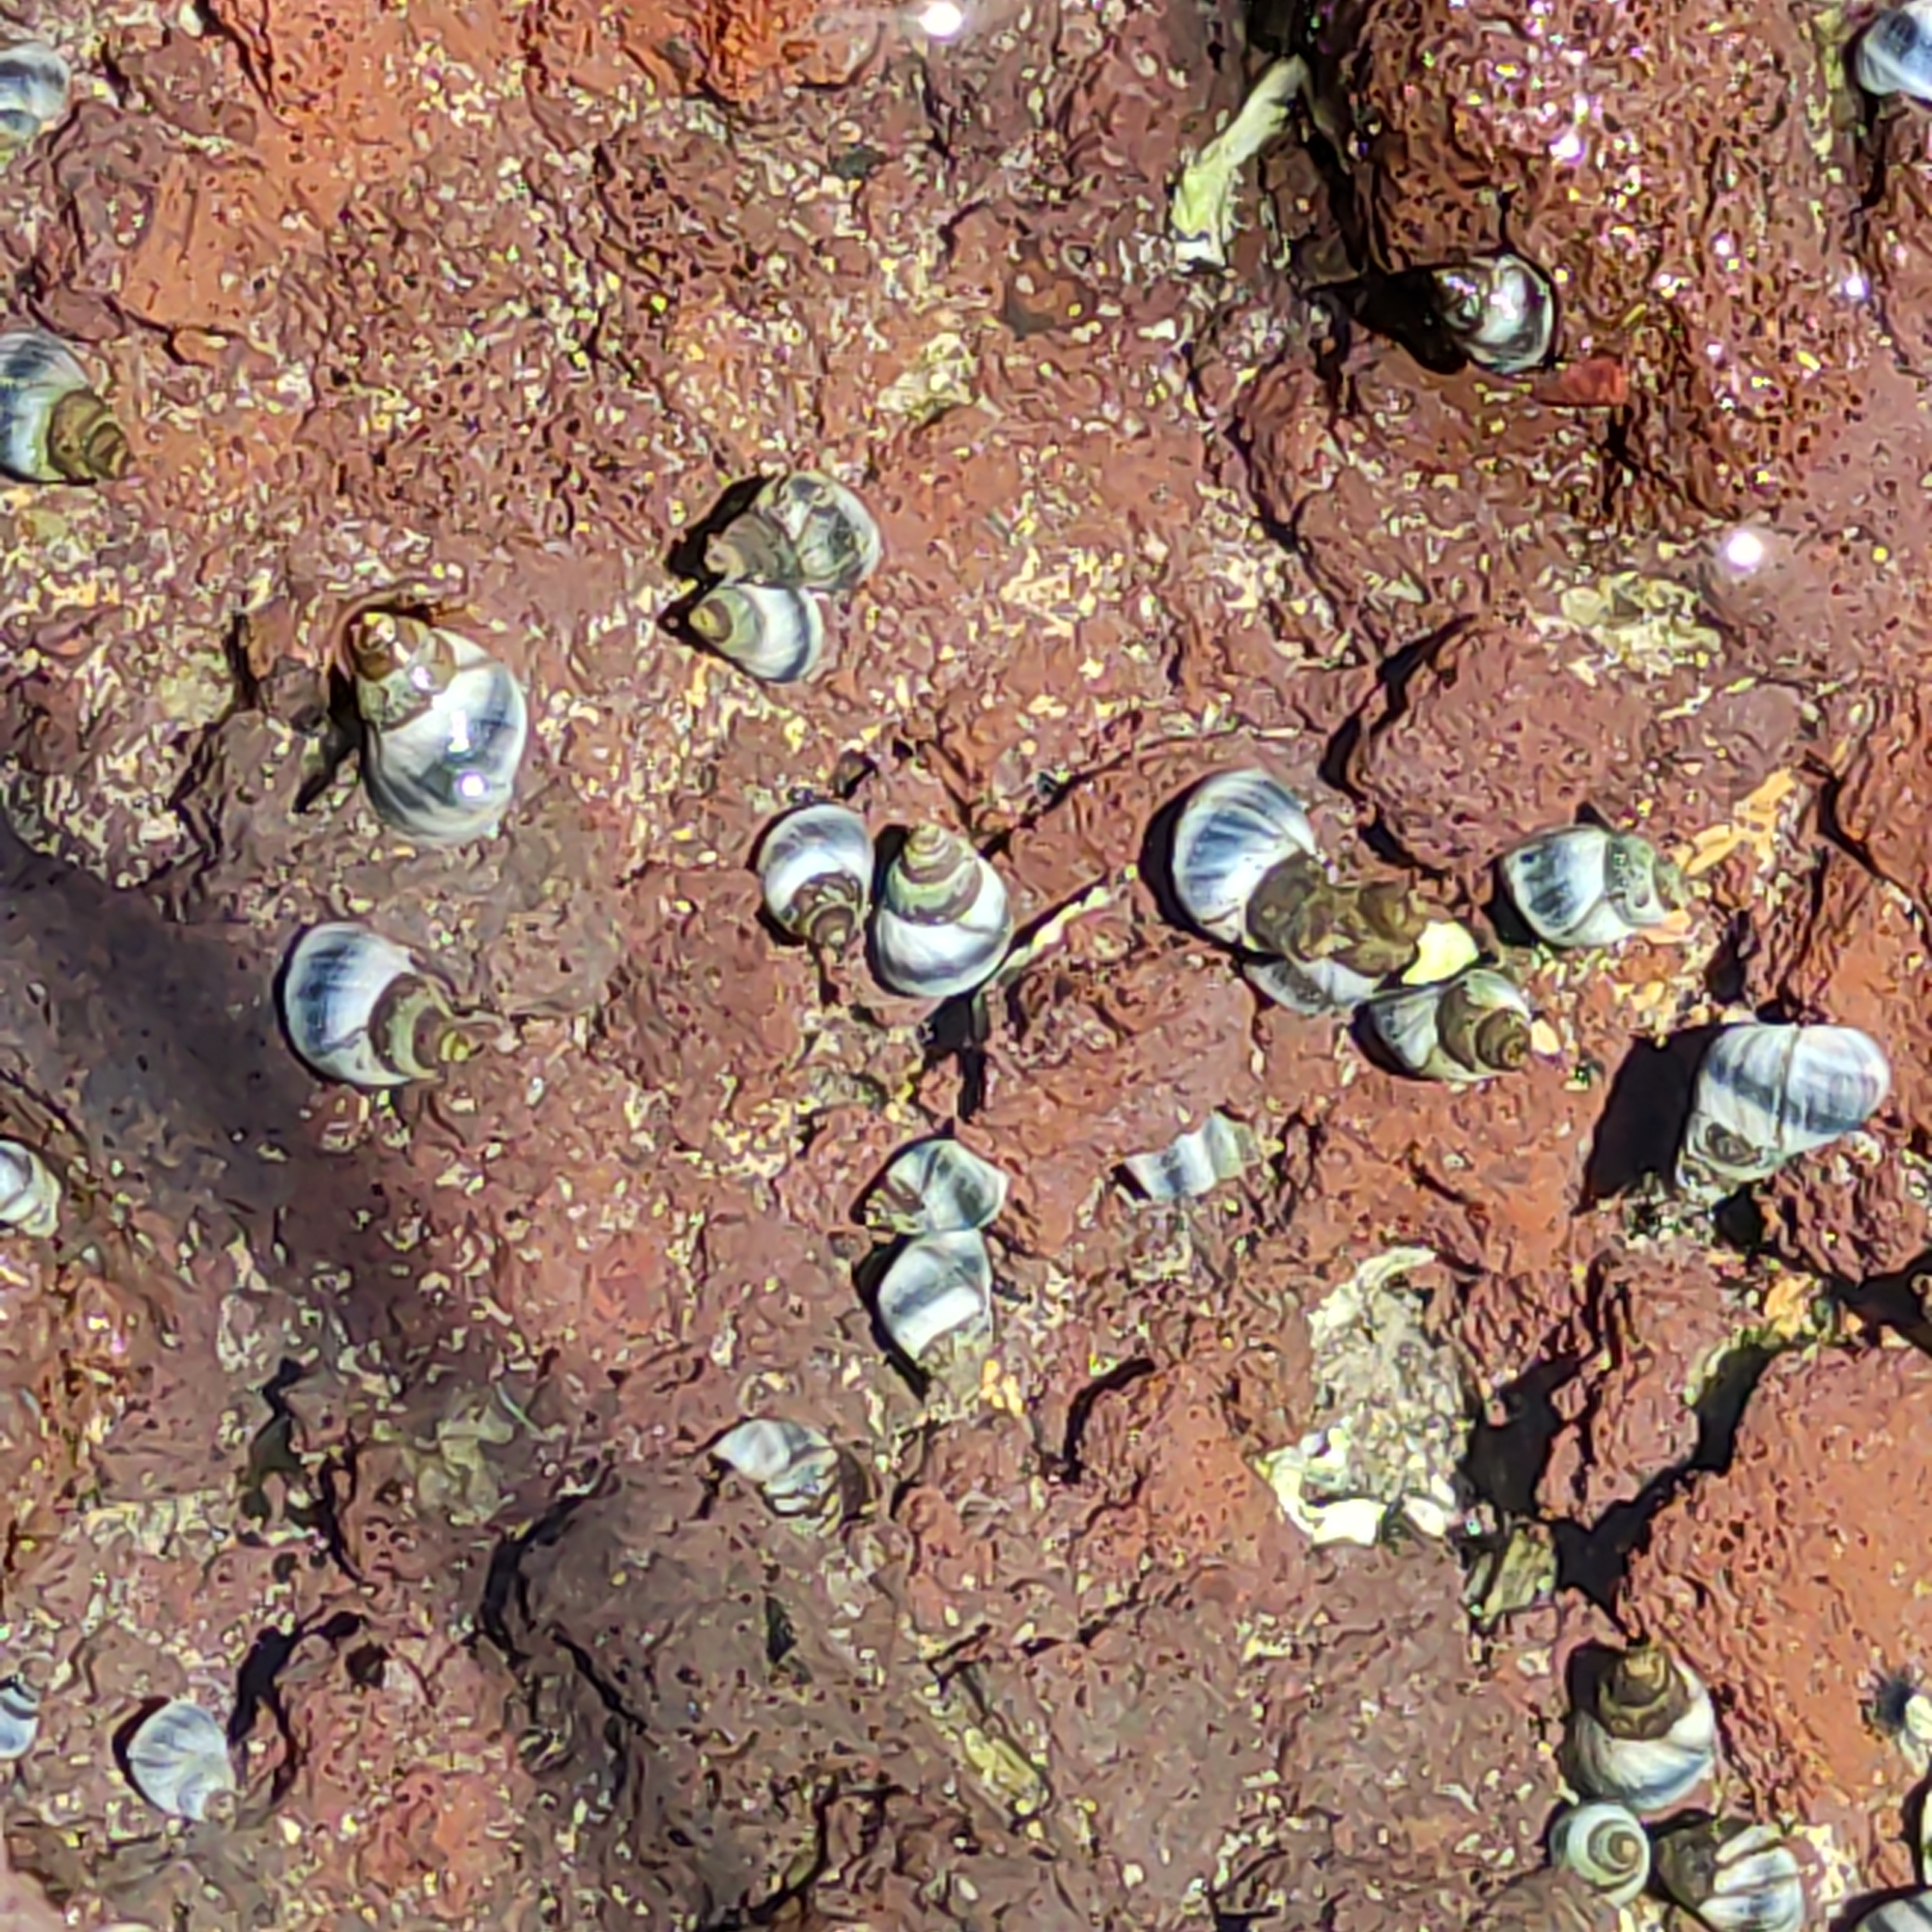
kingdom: Animalia
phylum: Mollusca
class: Gastropoda
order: Littorinimorpha
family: Littorinidae
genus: Austrolittorina
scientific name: Austrolittorina antipodum
